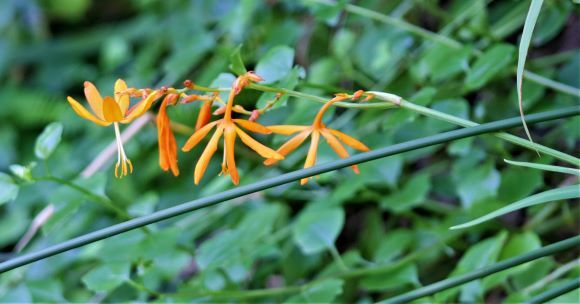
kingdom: Plantae
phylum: Tracheophyta
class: Liliopsida
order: Asparagales
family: Iridaceae
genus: Crocosmia
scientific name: Crocosmia aurea
